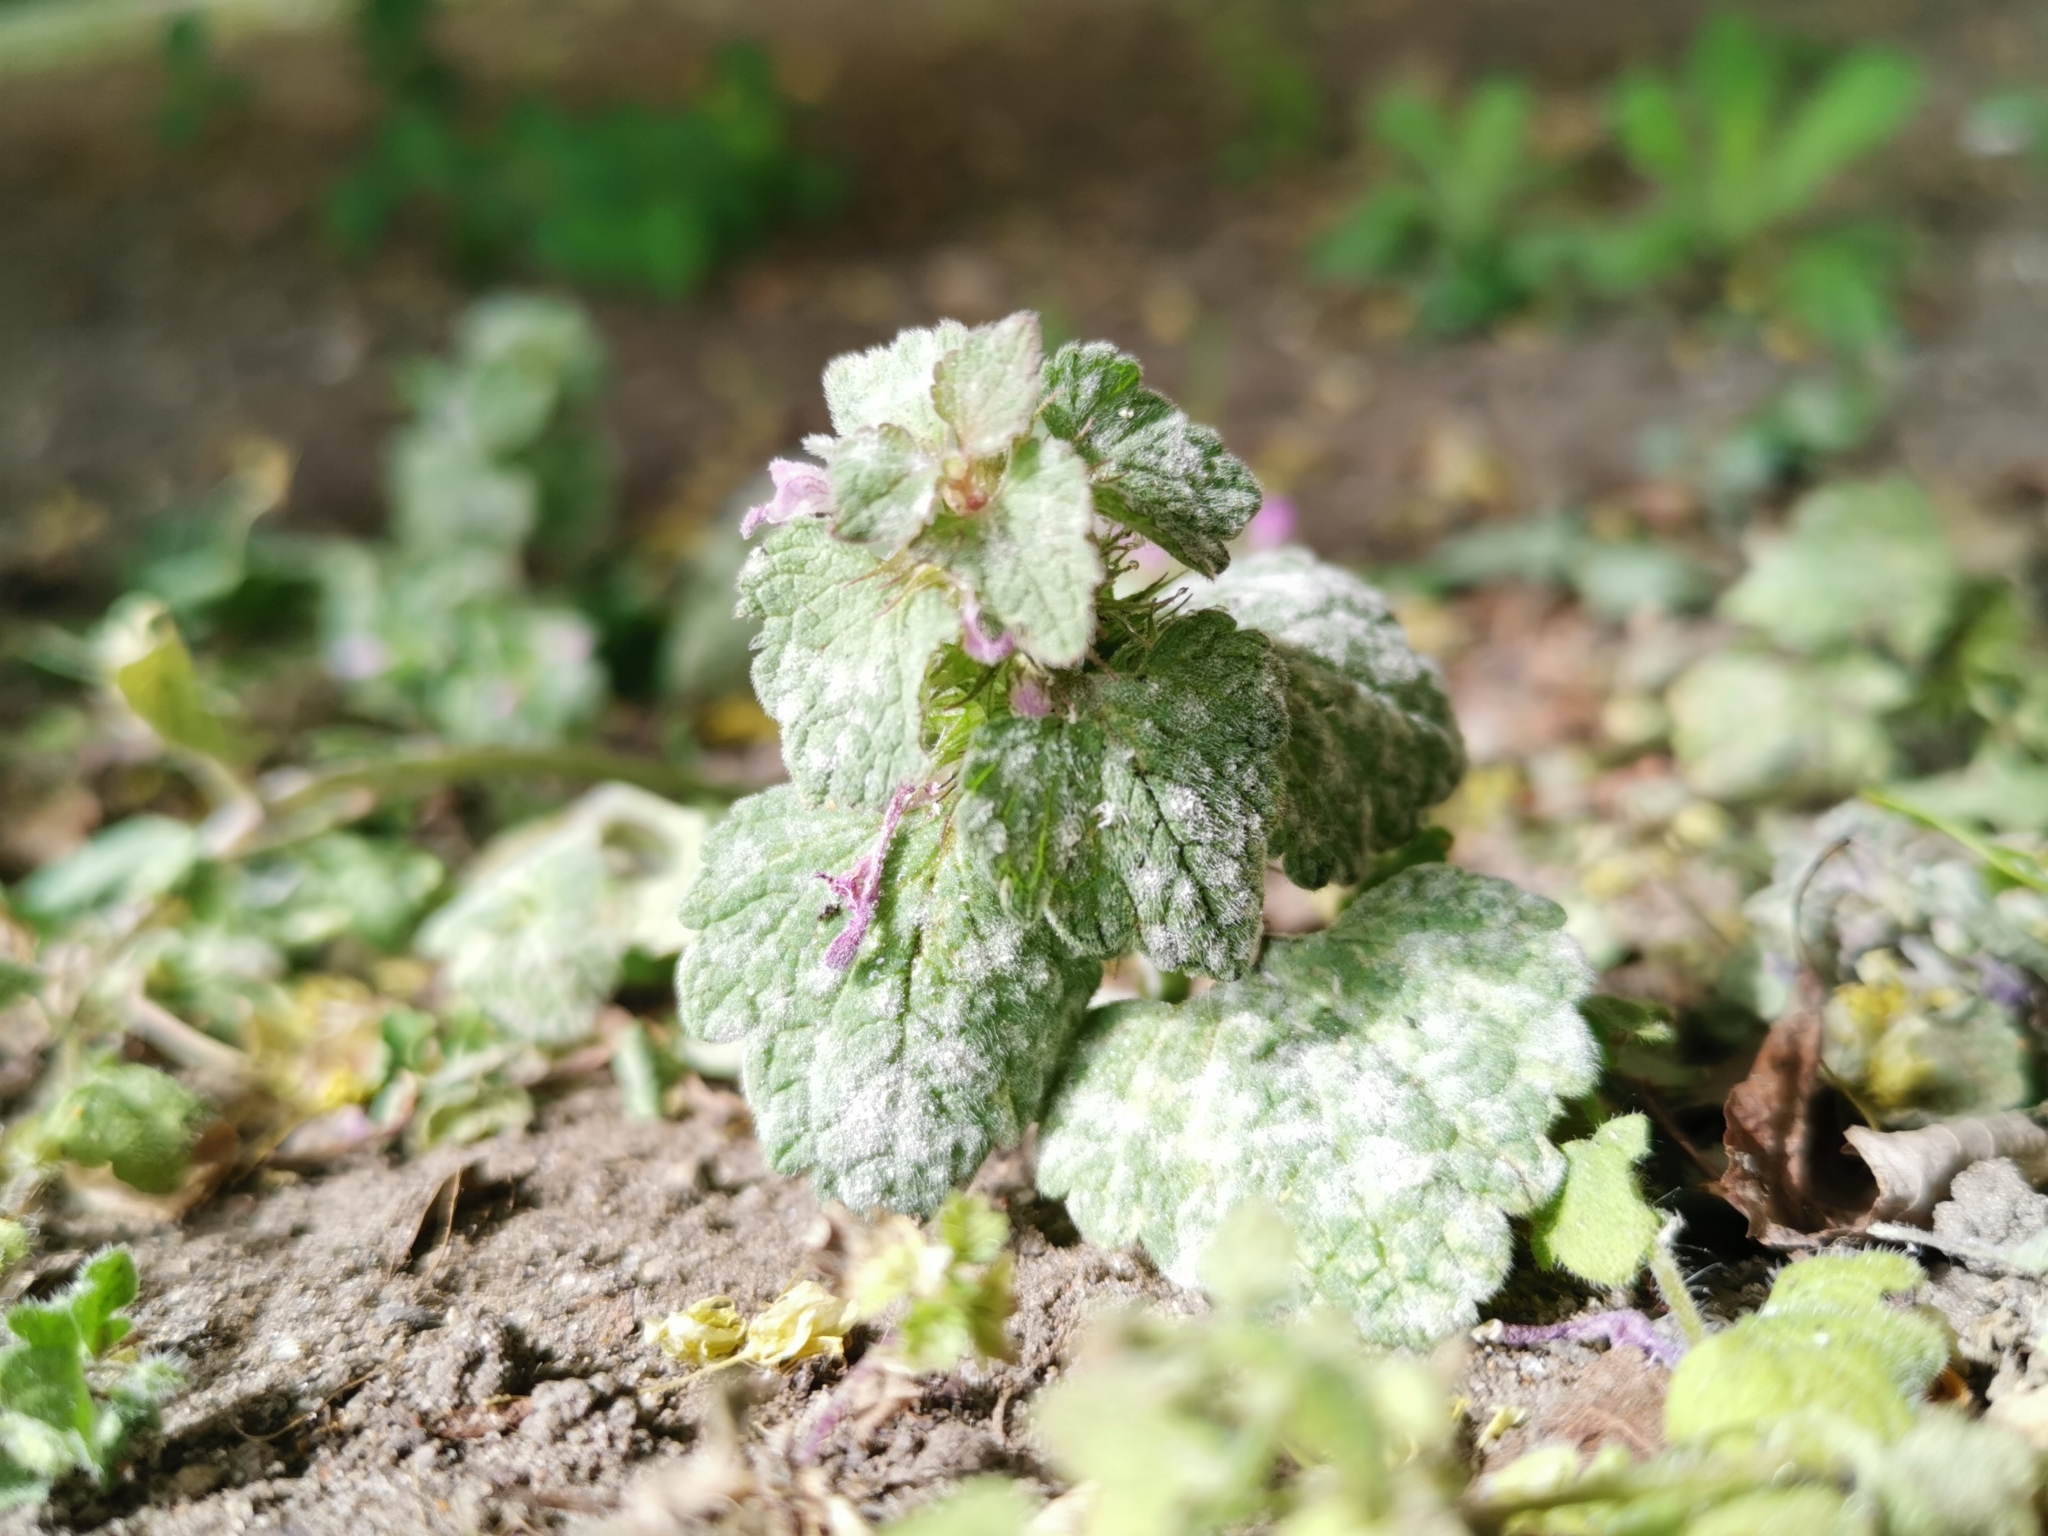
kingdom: Fungi
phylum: Ascomycota
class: Leotiomycetes
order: Helotiales
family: Erysiphaceae
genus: Neoerysiphe
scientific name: Neoerysiphe galeopsidis
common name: Mint mildew
